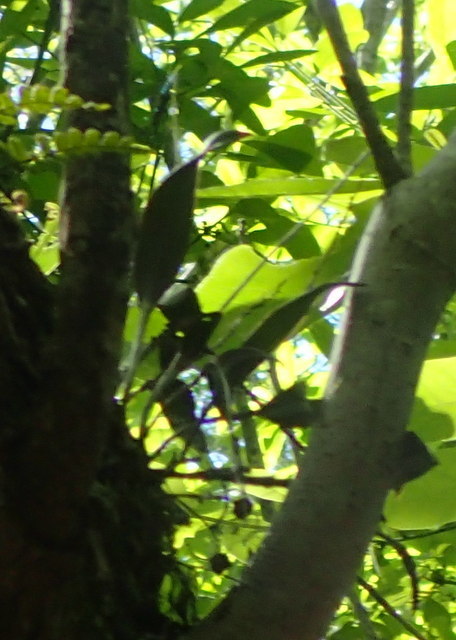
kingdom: Plantae
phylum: Tracheophyta
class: Liliopsida
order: Asparagales
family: Orchidaceae
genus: Epidendrum
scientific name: Epidendrum conopseum
